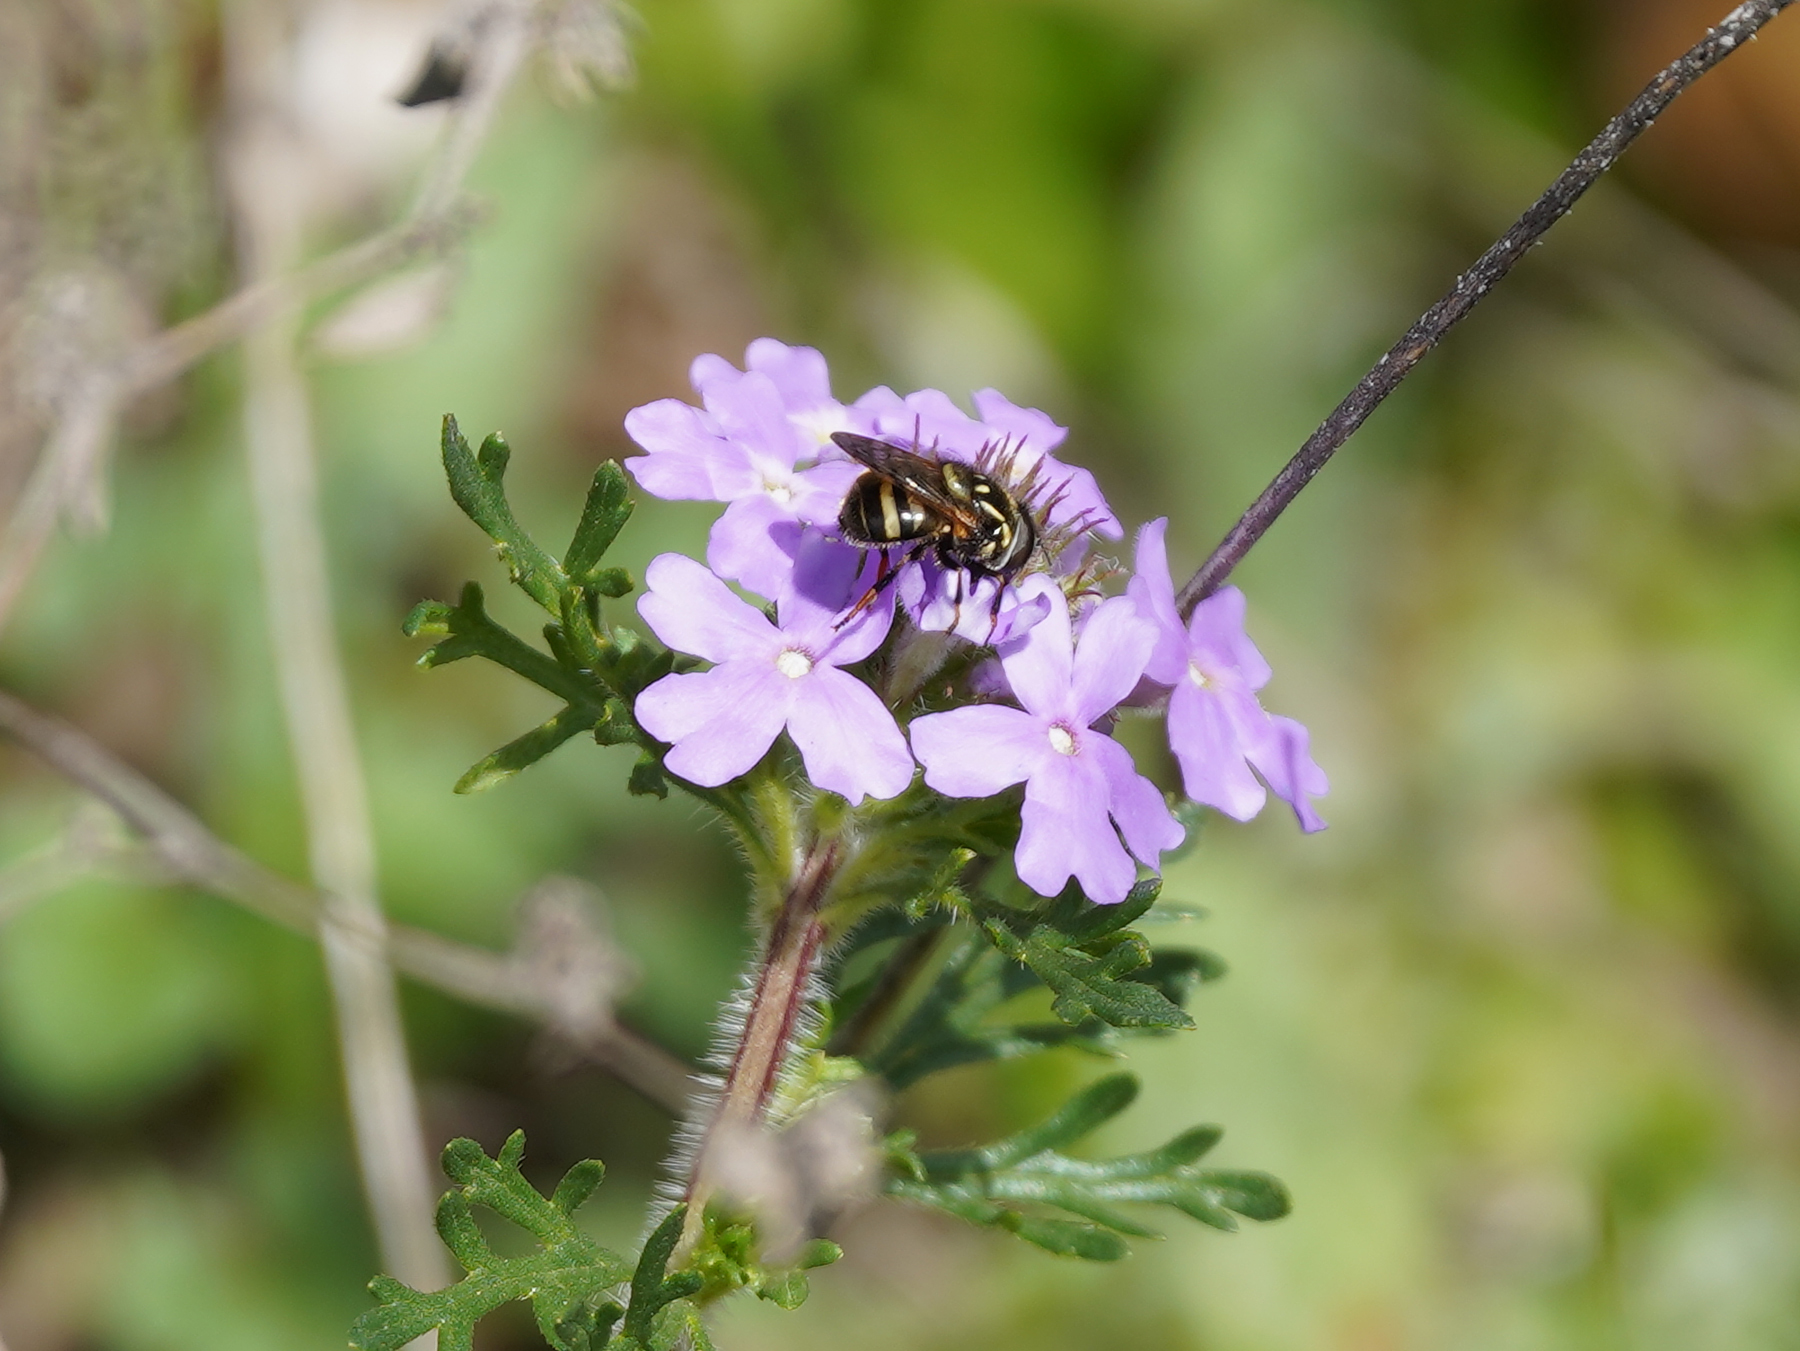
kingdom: Animalia
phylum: Arthropoda
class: Insecta
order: Diptera
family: Syrphidae
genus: Copestylum
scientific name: Copestylum vittatum
